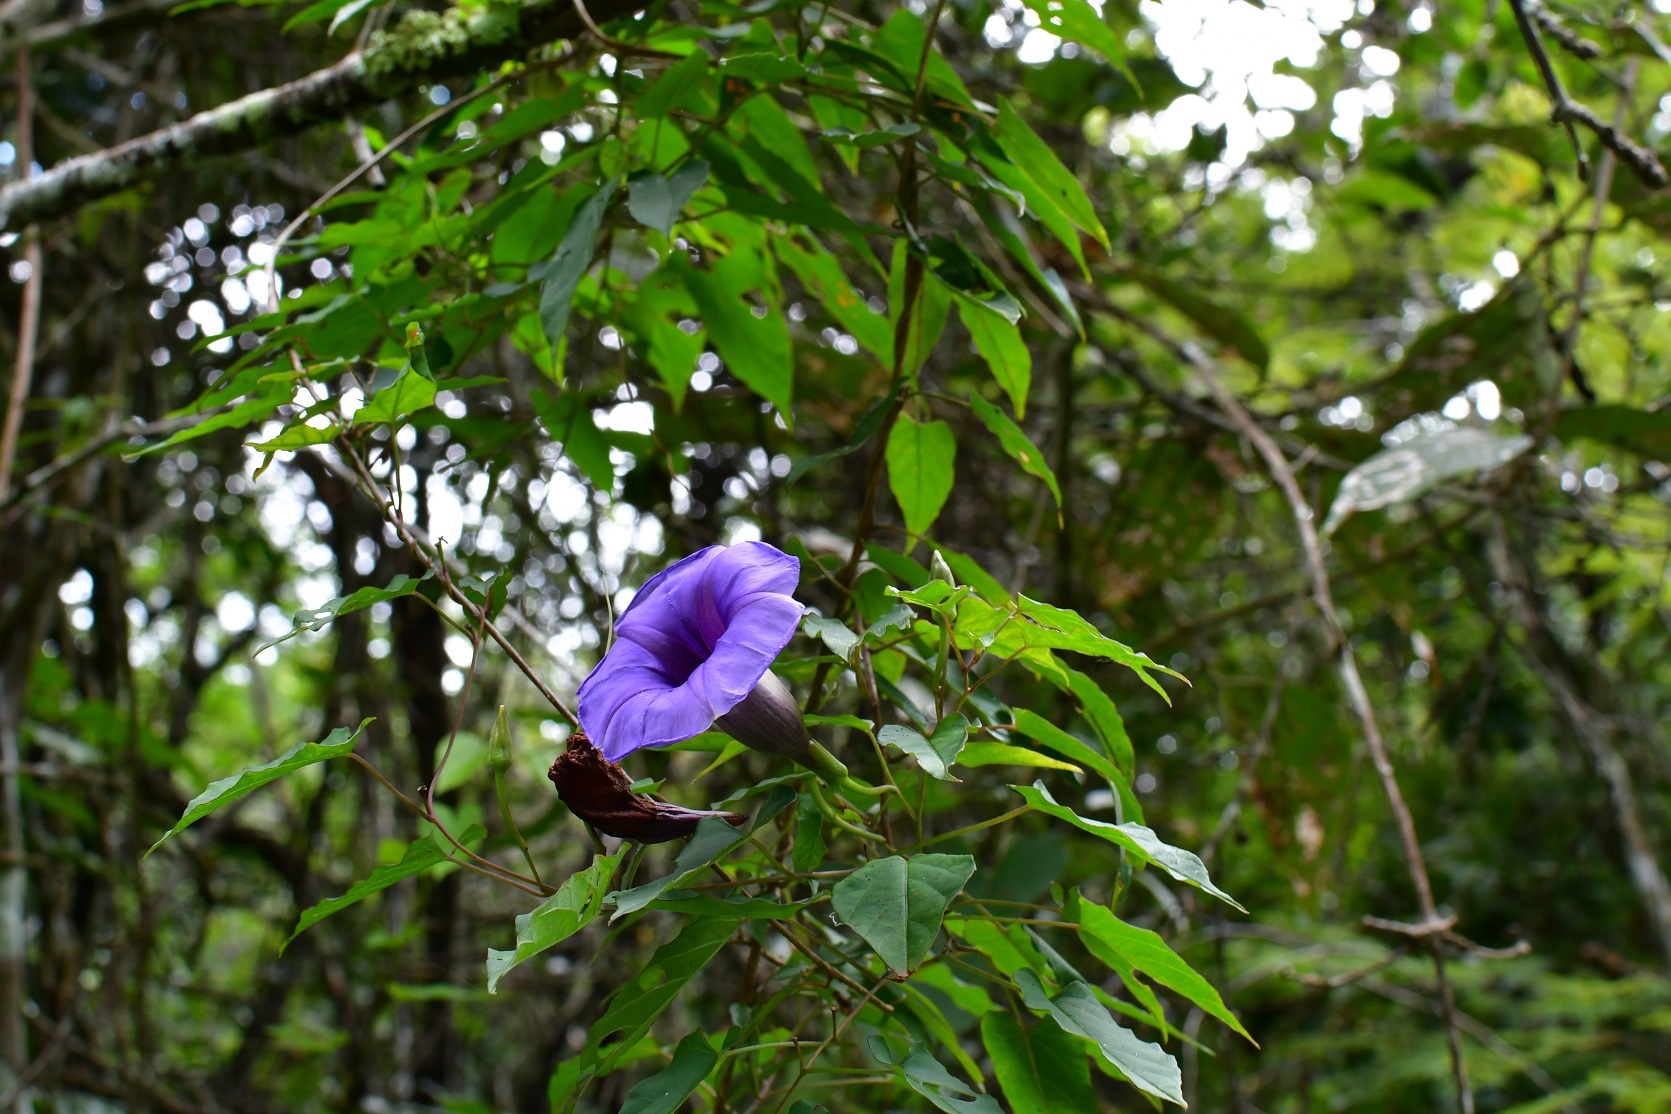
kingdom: Plantae
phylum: Tracheophyta
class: Magnoliopsida
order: Solanales
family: Convolvulaceae
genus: Ipomoea
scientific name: Ipomoea lindenii
